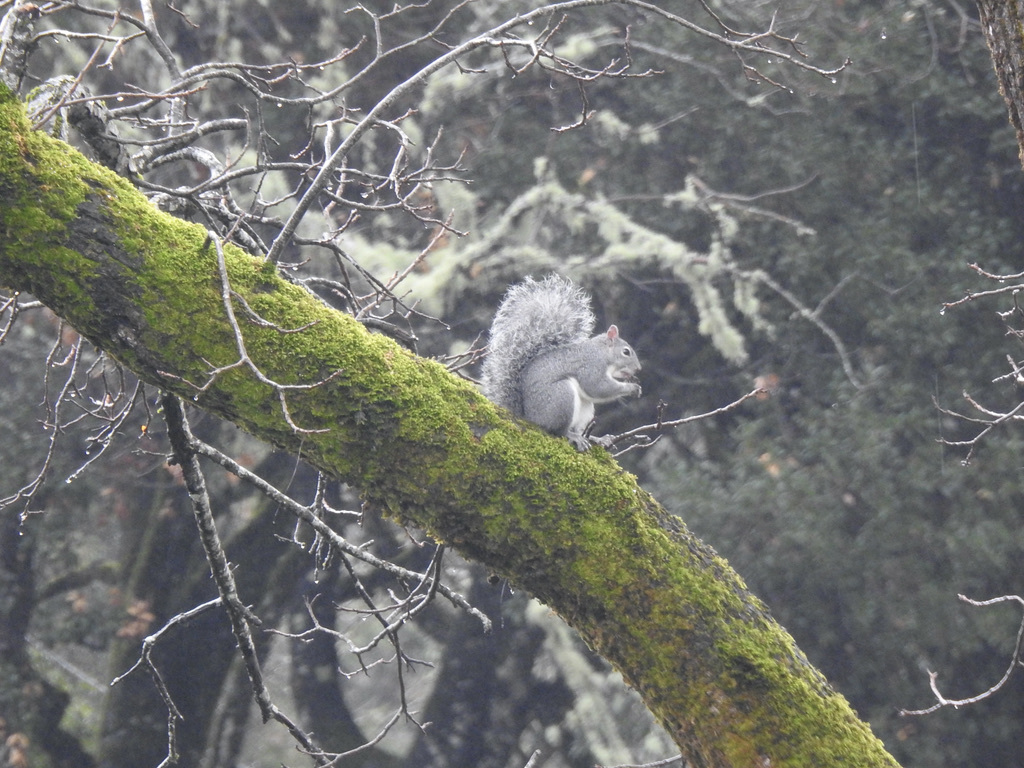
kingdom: Animalia
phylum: Chordata
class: Mammalia
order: Rodentia
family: Sciuridae
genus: Sciurus
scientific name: Sciurus griseus
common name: Western gray squirrel
